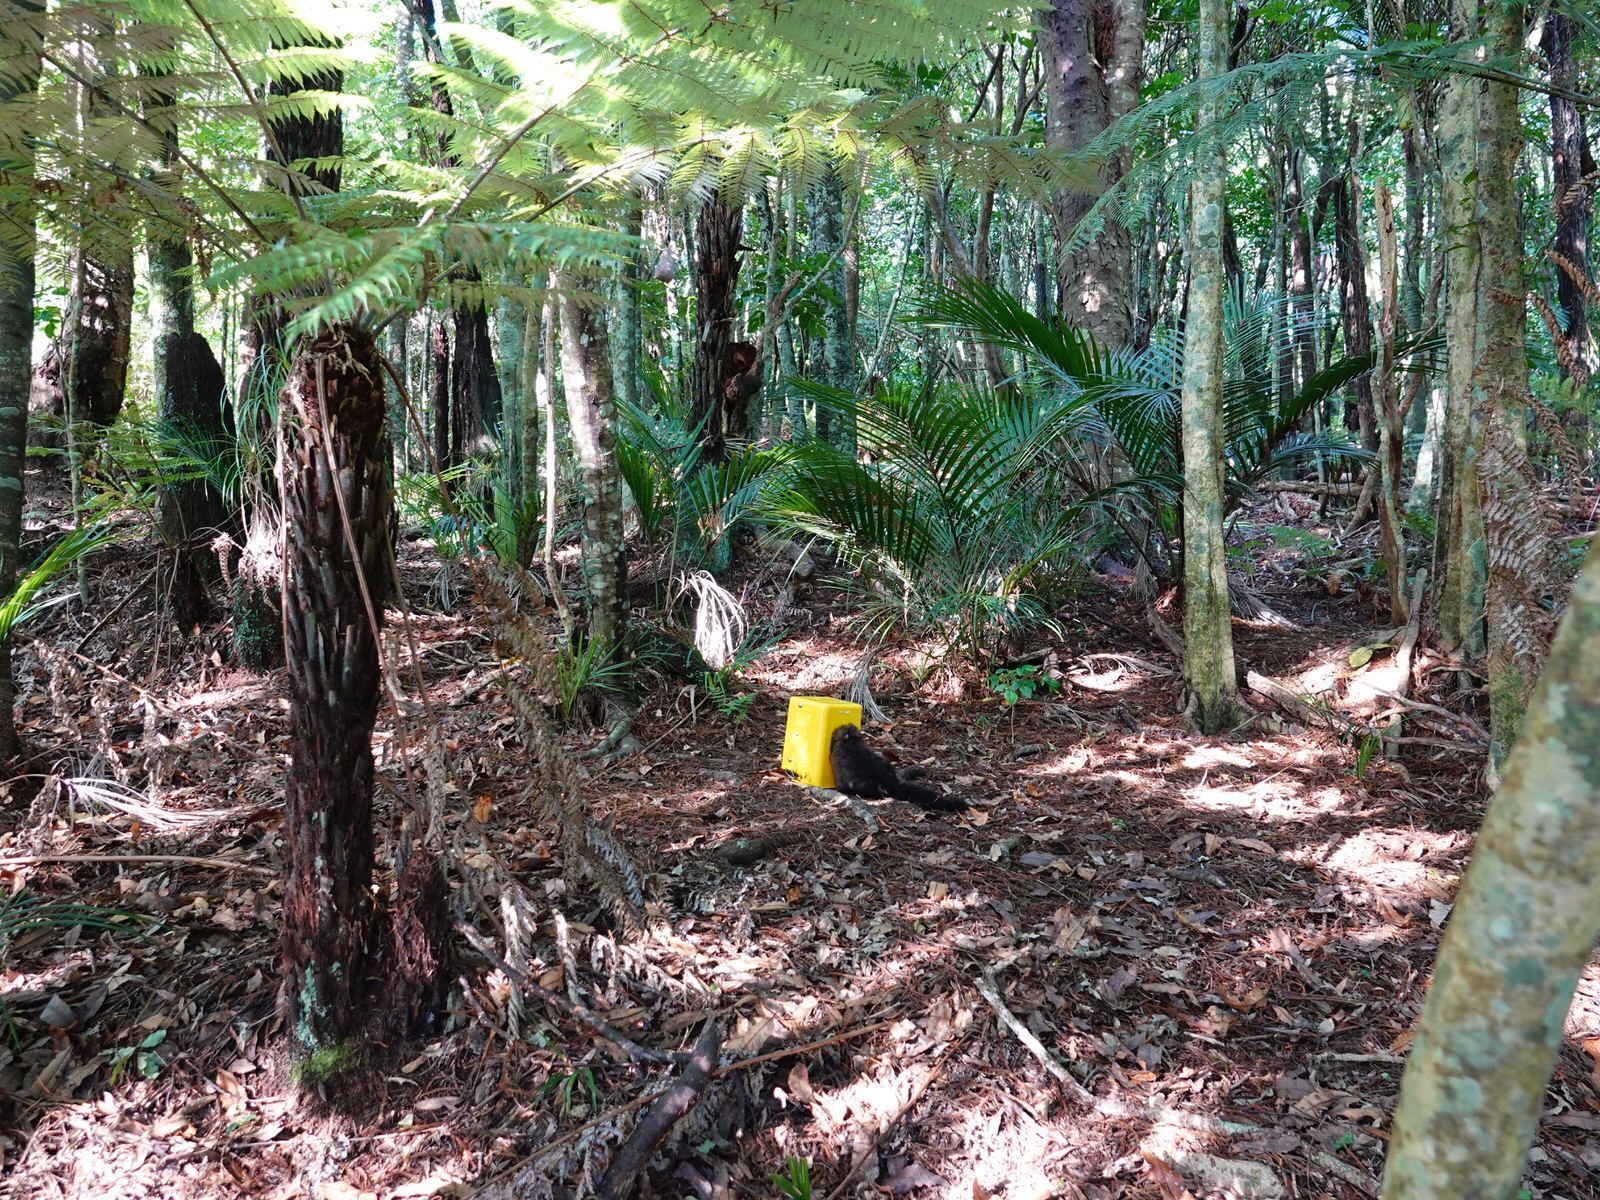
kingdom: Animalia
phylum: Chordata
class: Mammalia
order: Diprotodontia
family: Phalangeridae
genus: Trichosurus
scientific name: Trichosurus vulpecula
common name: Common brushtail
